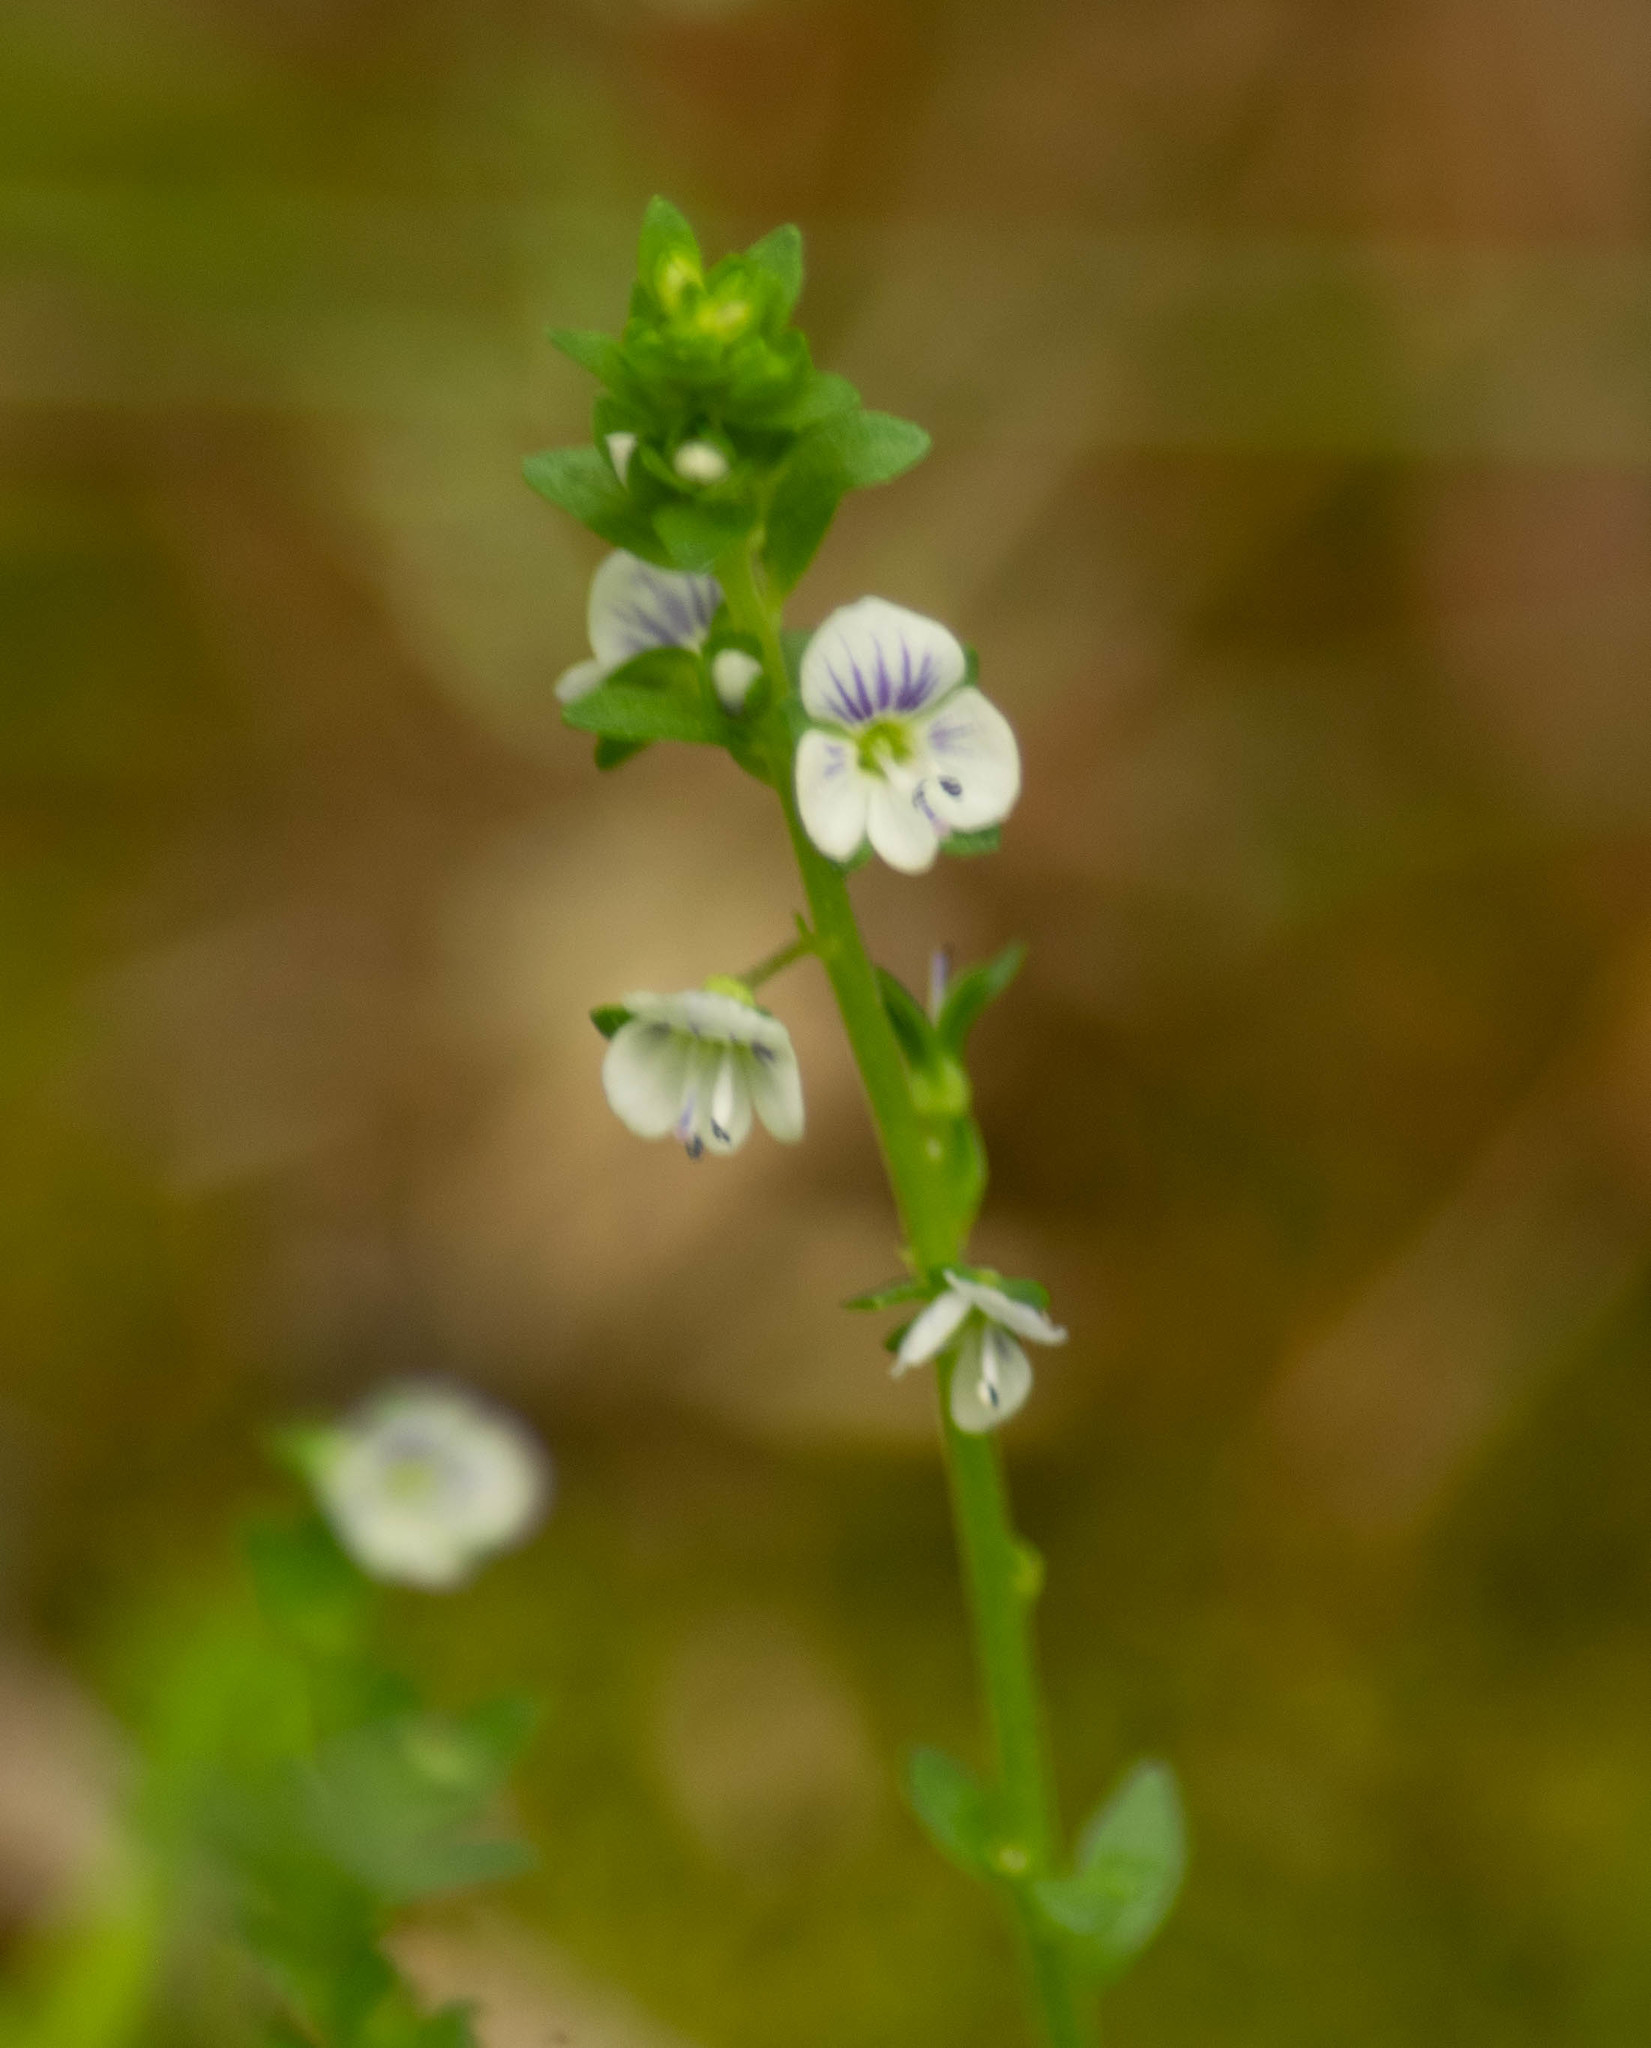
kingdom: Plantae
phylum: Tracheophyta
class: Magnoliopsida
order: Lamiales
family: Plantaginaceae
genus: Veronica
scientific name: Veronica serpyllifolia
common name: Thyme-leaved speedwell
